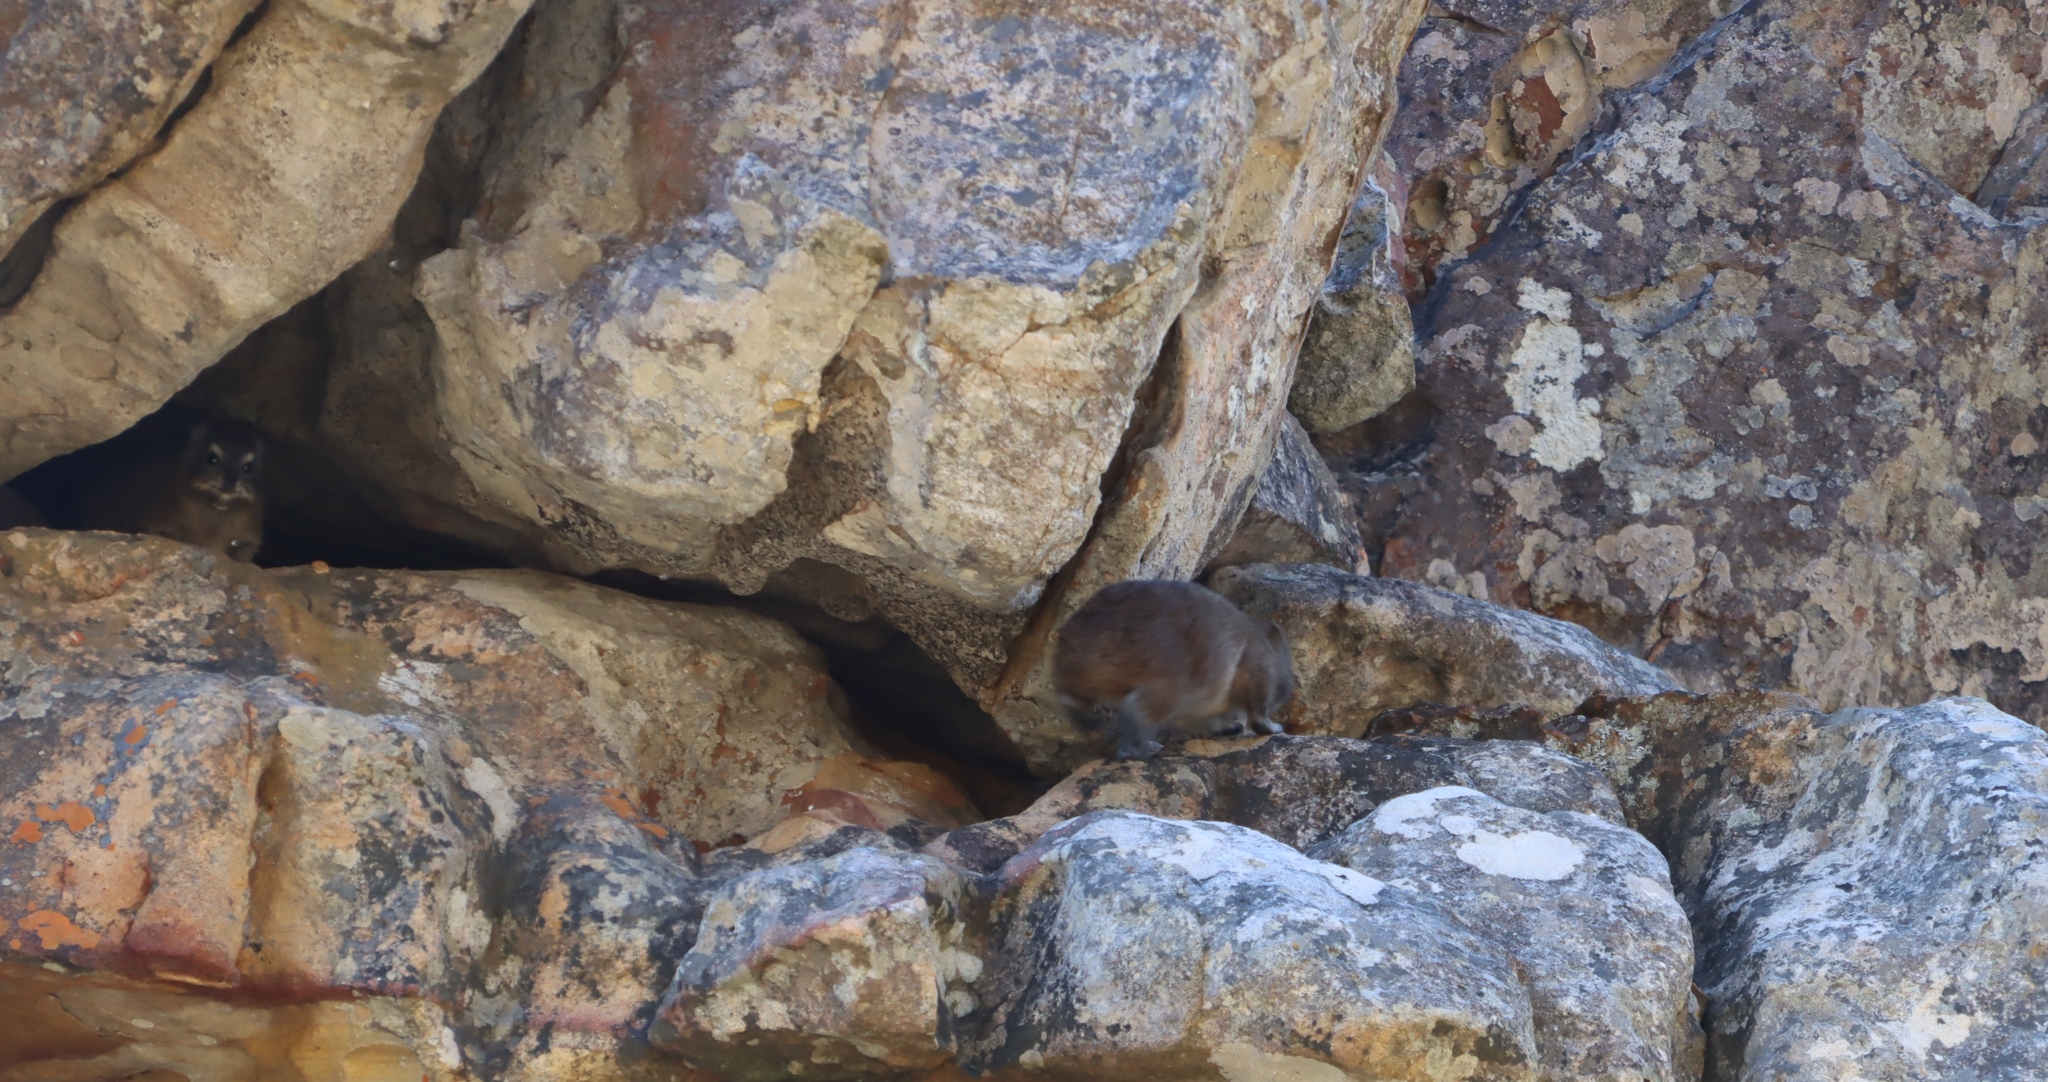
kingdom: Animalia
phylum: Chordata
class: Mammalia
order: Hyracoidea
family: Procaviidae
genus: Procavia
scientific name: Procavia capensis
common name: Rock hyrax
